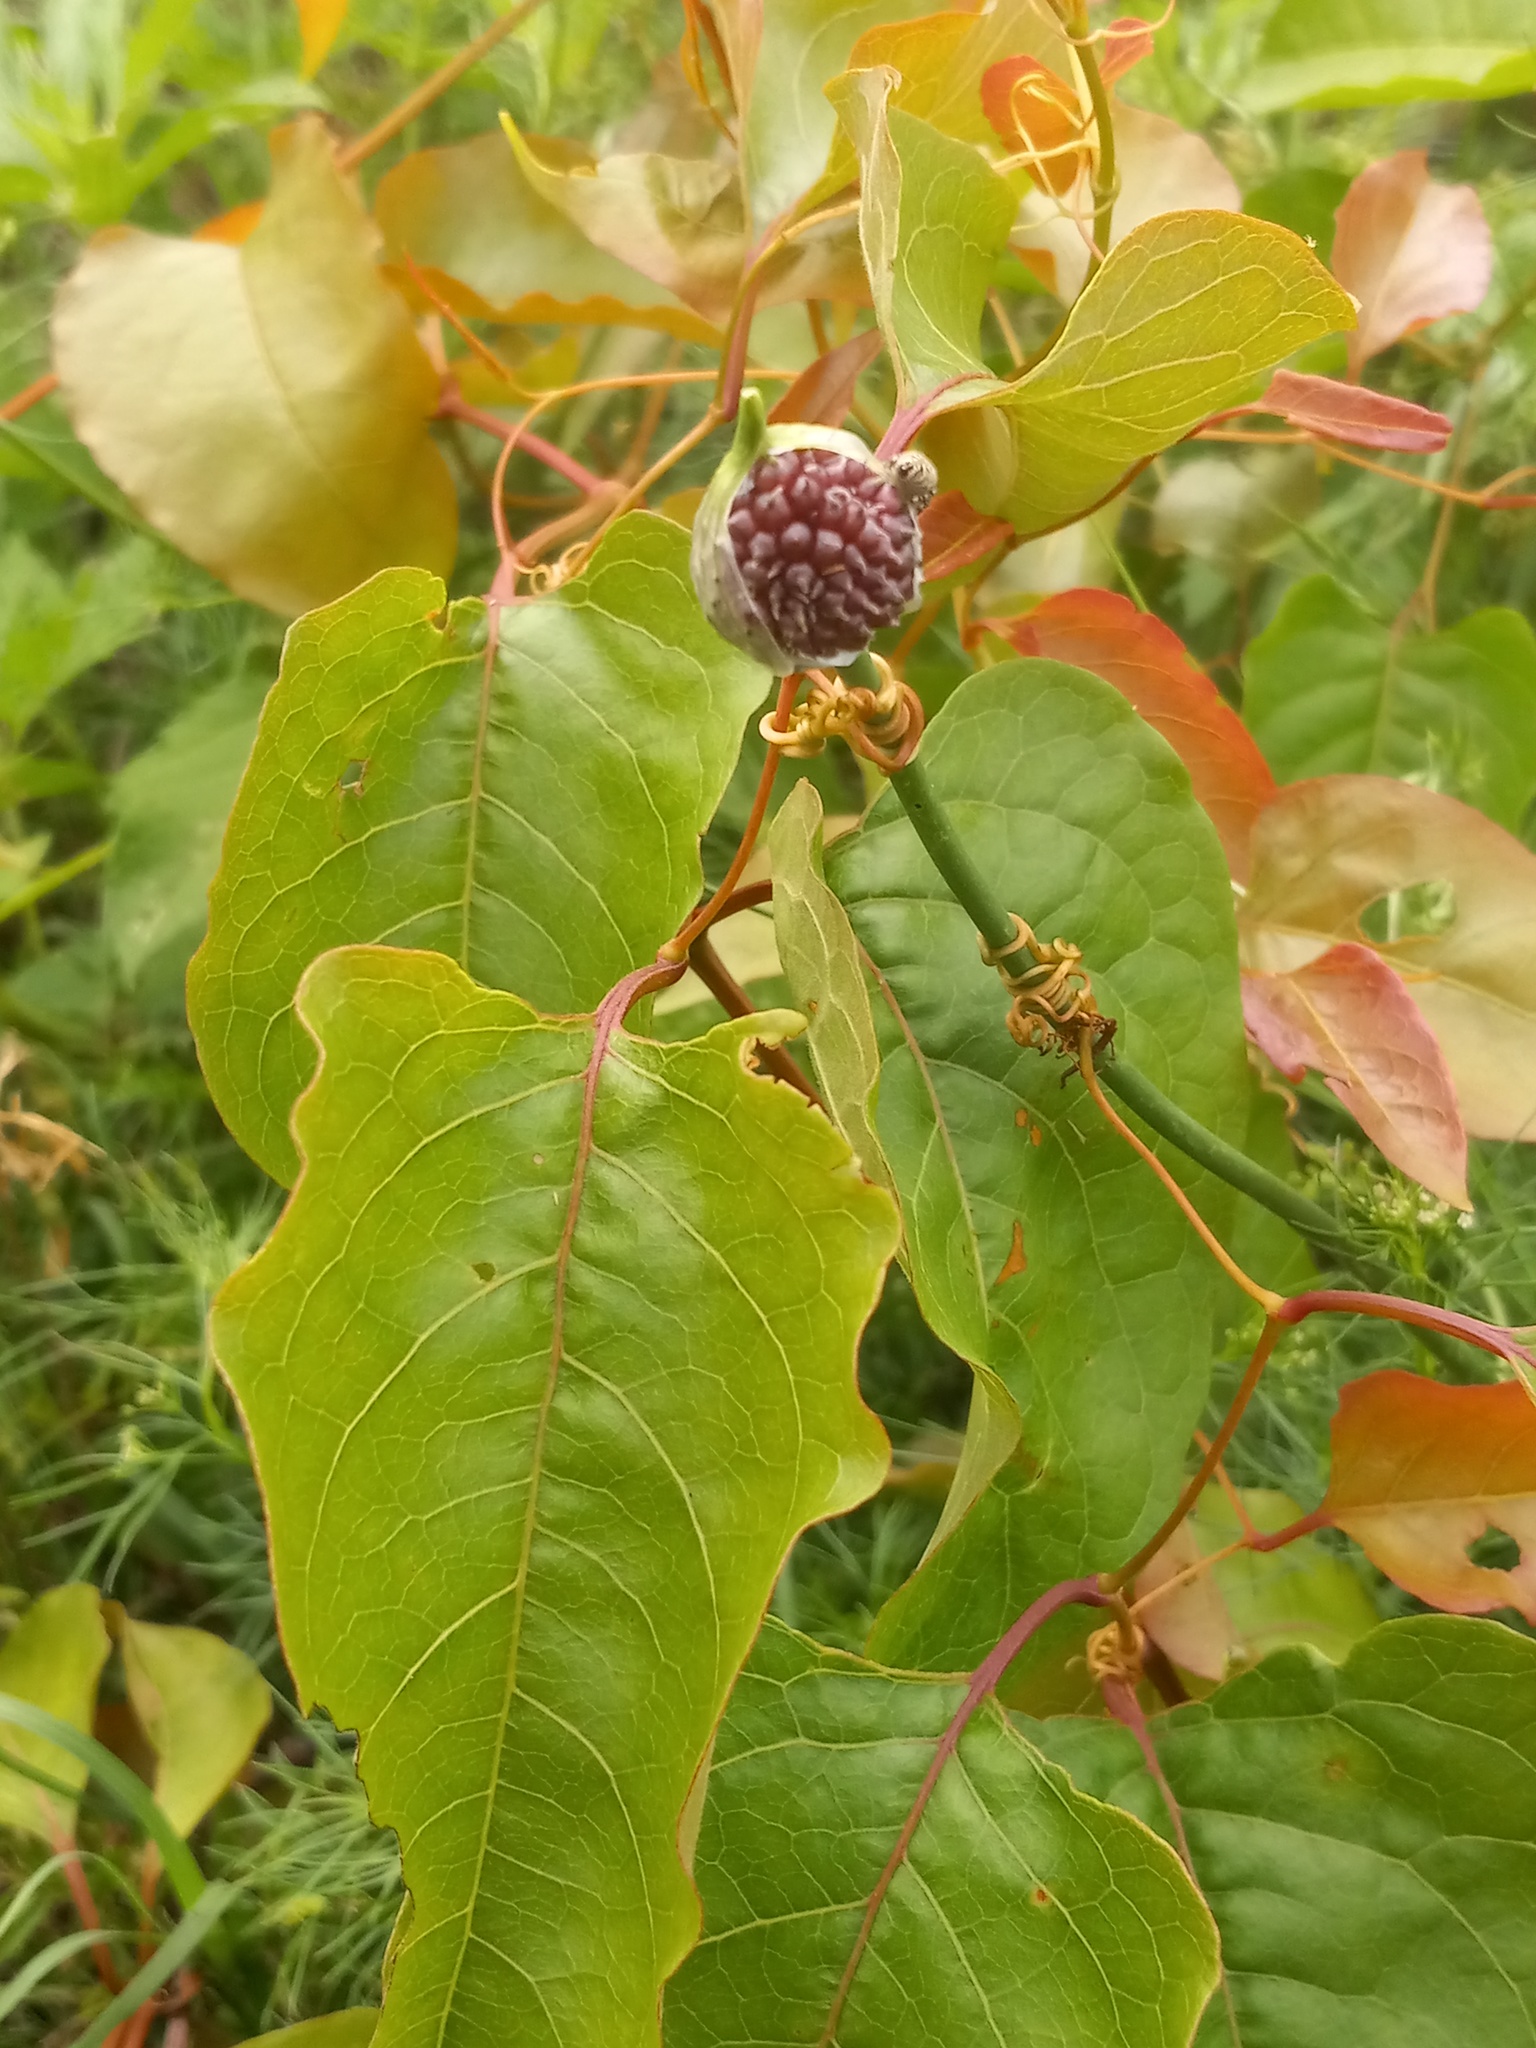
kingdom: Plantae
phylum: Tracheophyta
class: Magnoliopsida
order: Caryophyllales
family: Polygonaceae
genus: Brunnichia
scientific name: Brunnichia ovata
